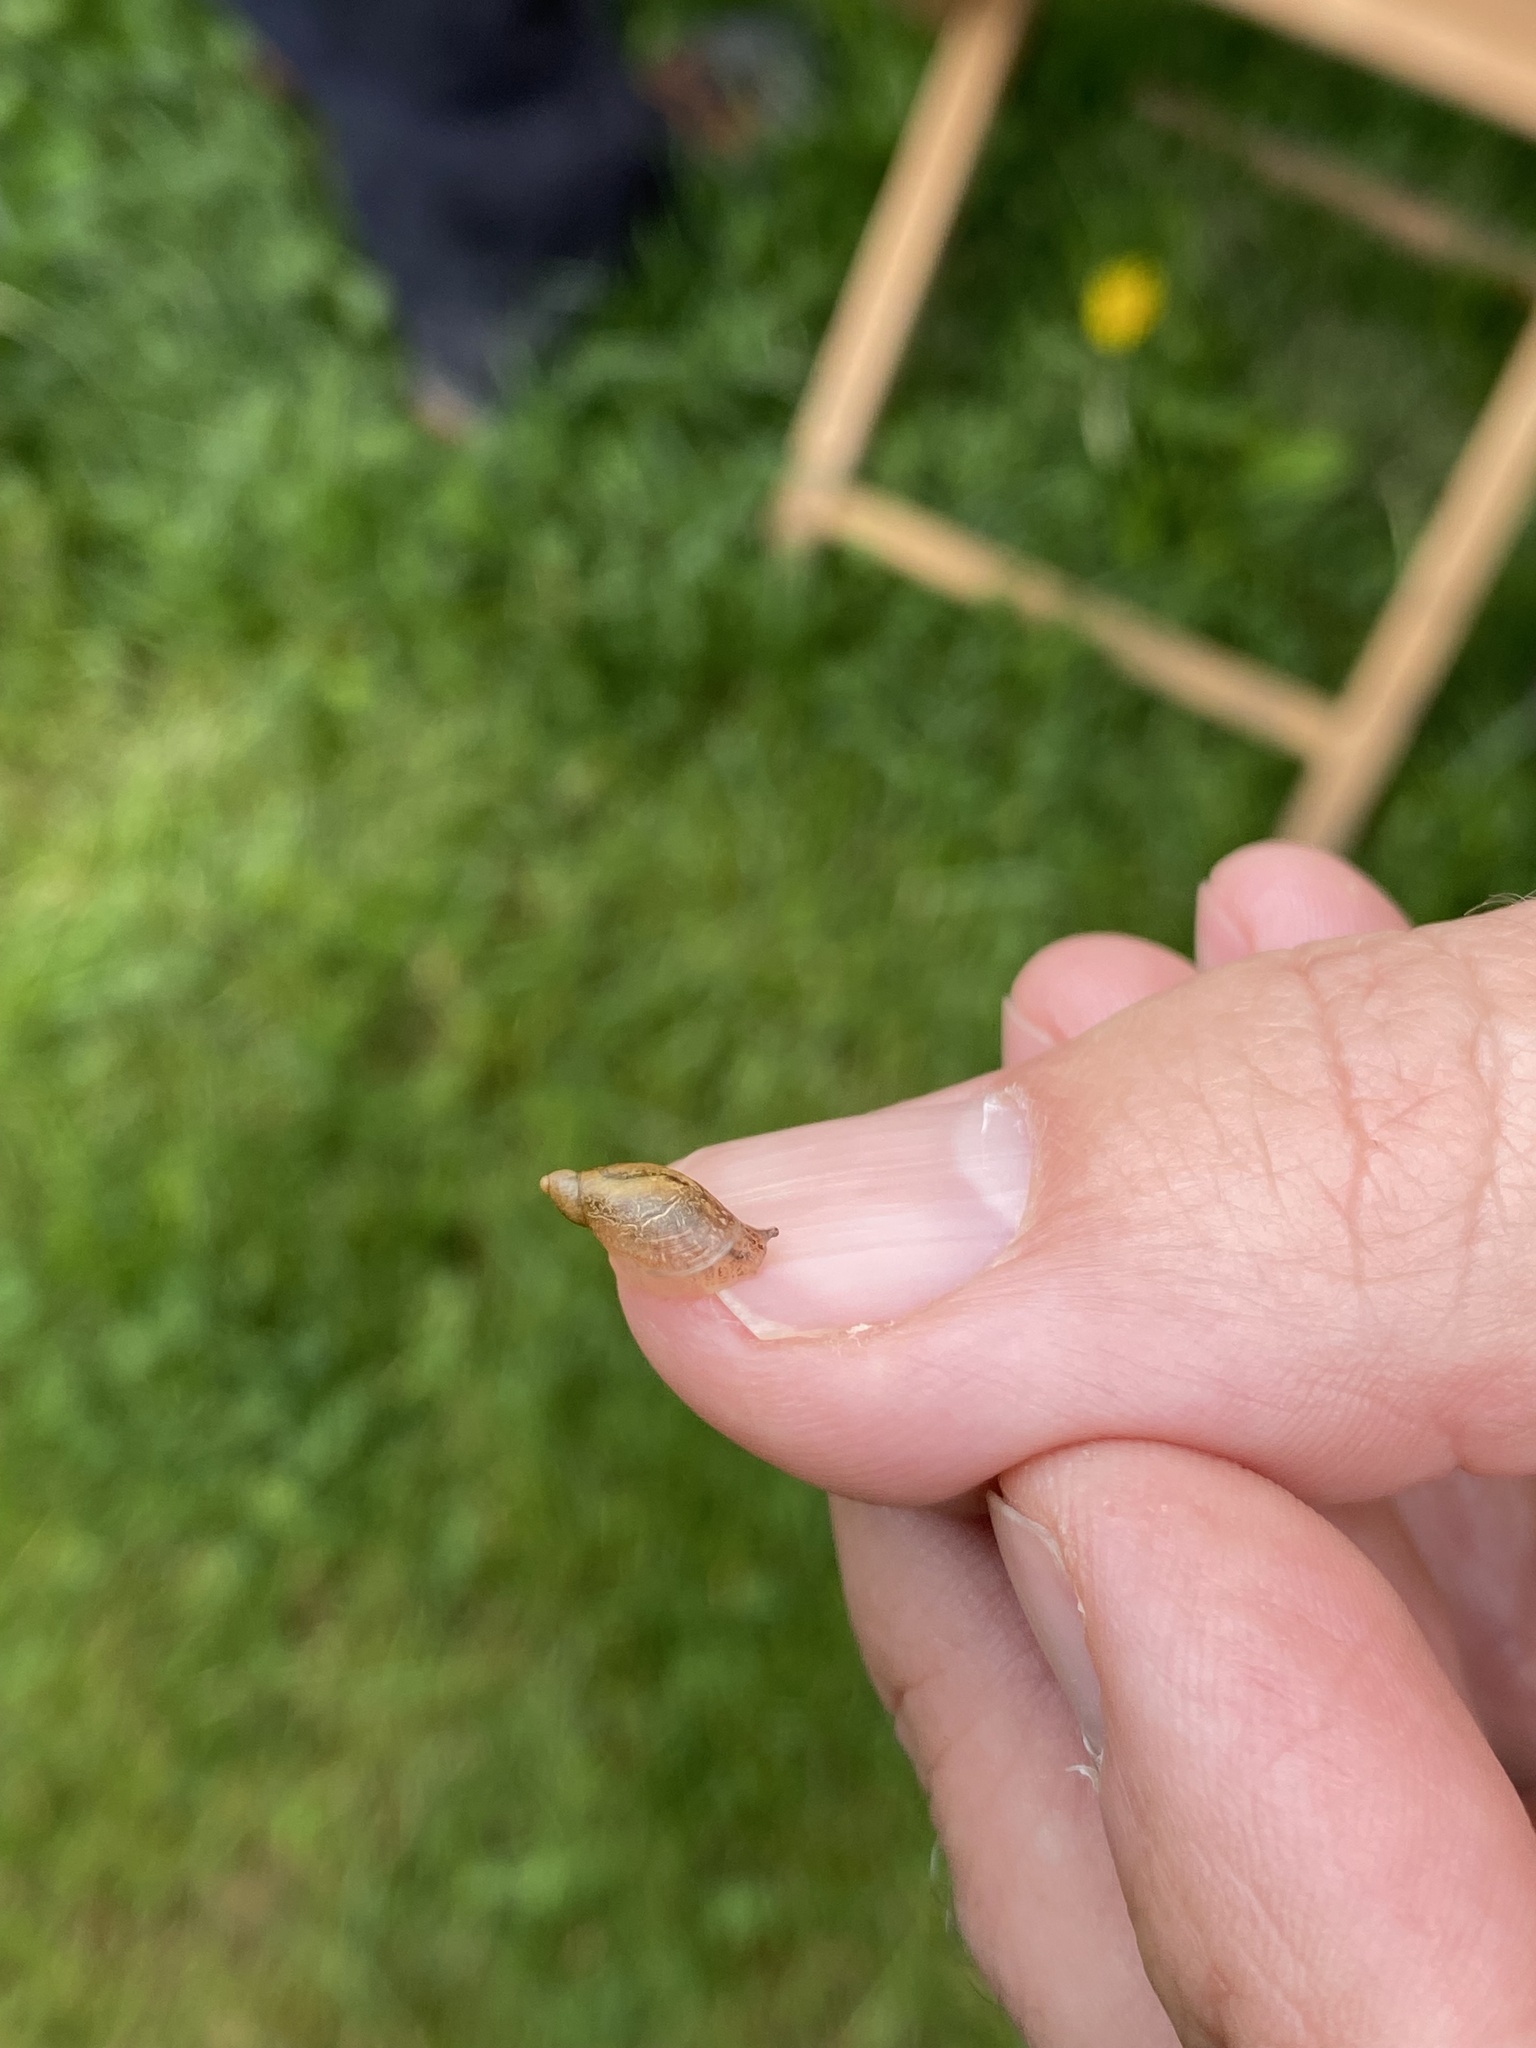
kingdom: Animalia
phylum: Mollusca
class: Gastropoda
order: Stylommatophora
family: Succineidae
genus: Oxyloma
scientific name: Oxyloma elegans
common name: Pfeiffer's amber snail
